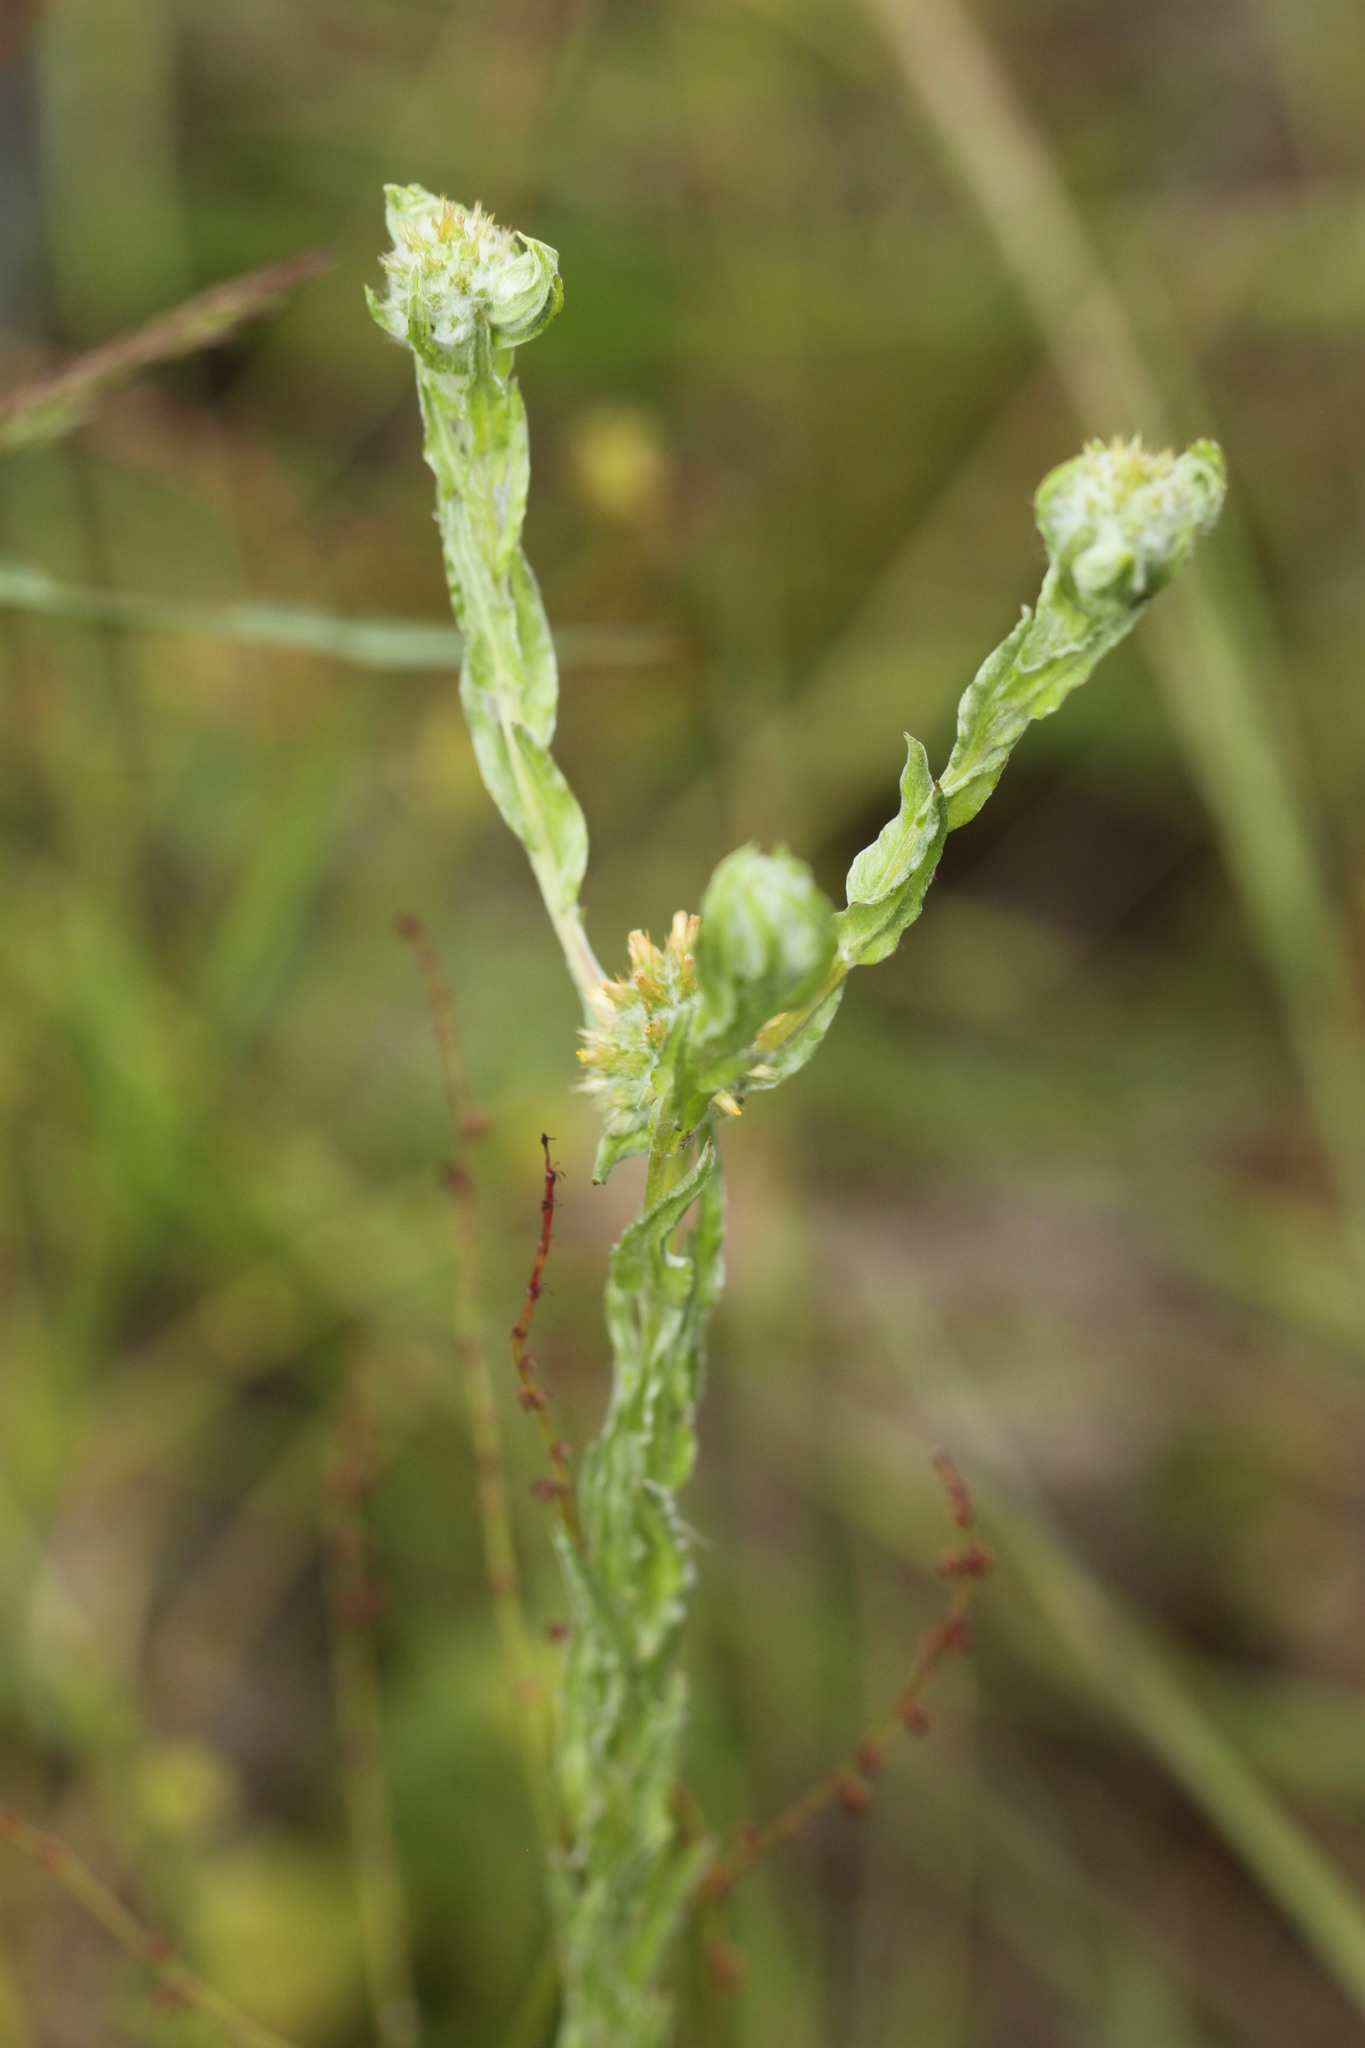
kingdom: Plantae
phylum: Tracheophyta
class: Magnoliopsida
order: Asterales
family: Asteraceae
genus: Filago
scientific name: Filago germanica
